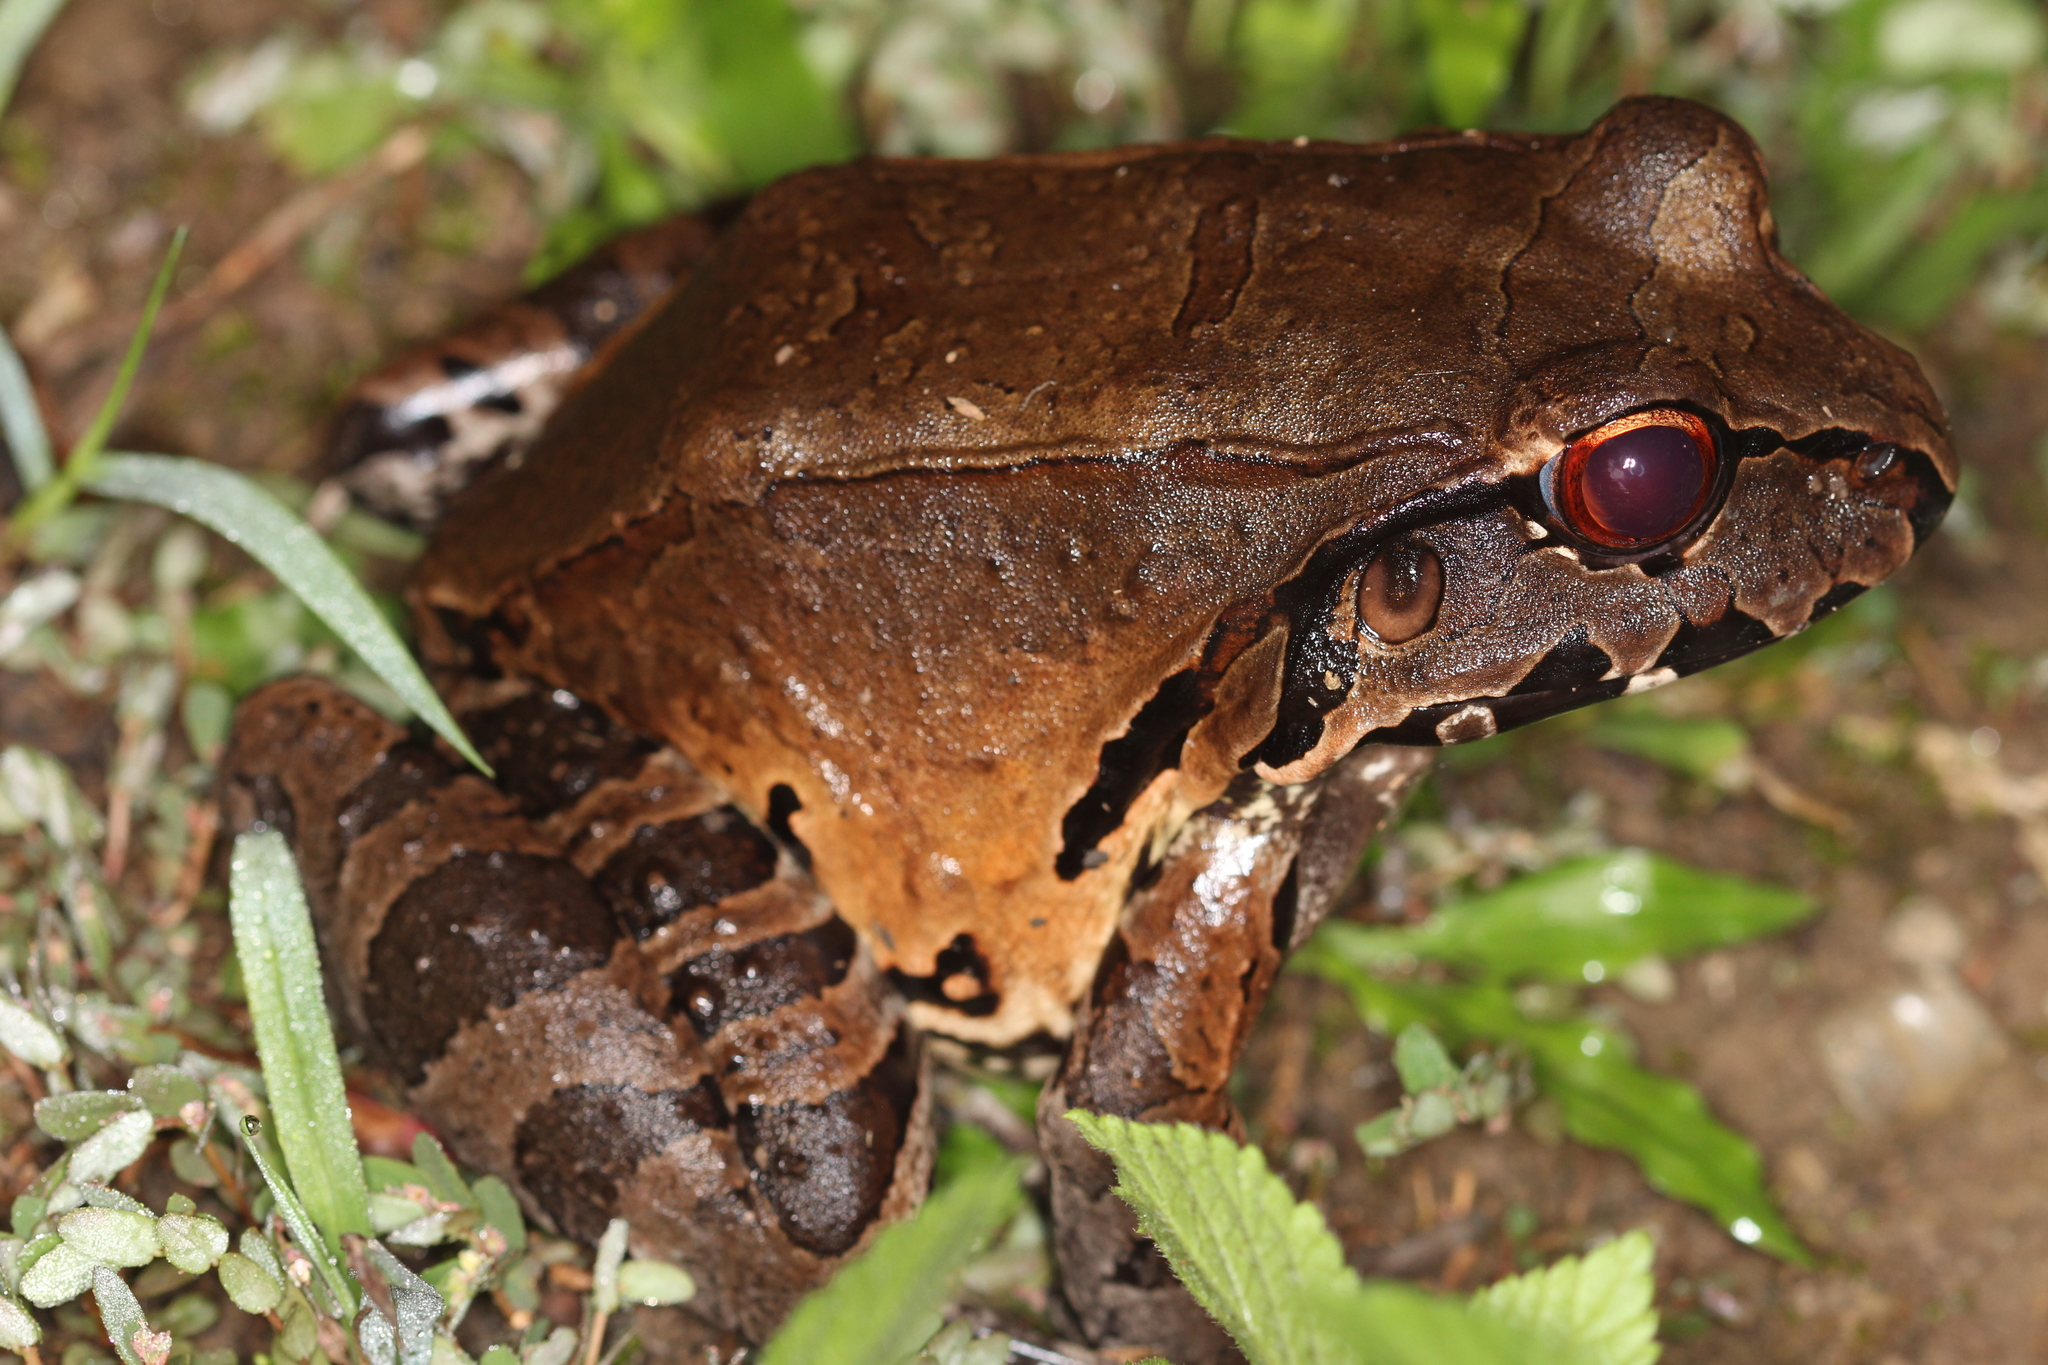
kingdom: Animalia
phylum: Chordata
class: Amphibia
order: Anura
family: Leptodactylidae
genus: Leptodactylus
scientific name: Leptodactylus pentadactylus
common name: Smoky jungle frog
